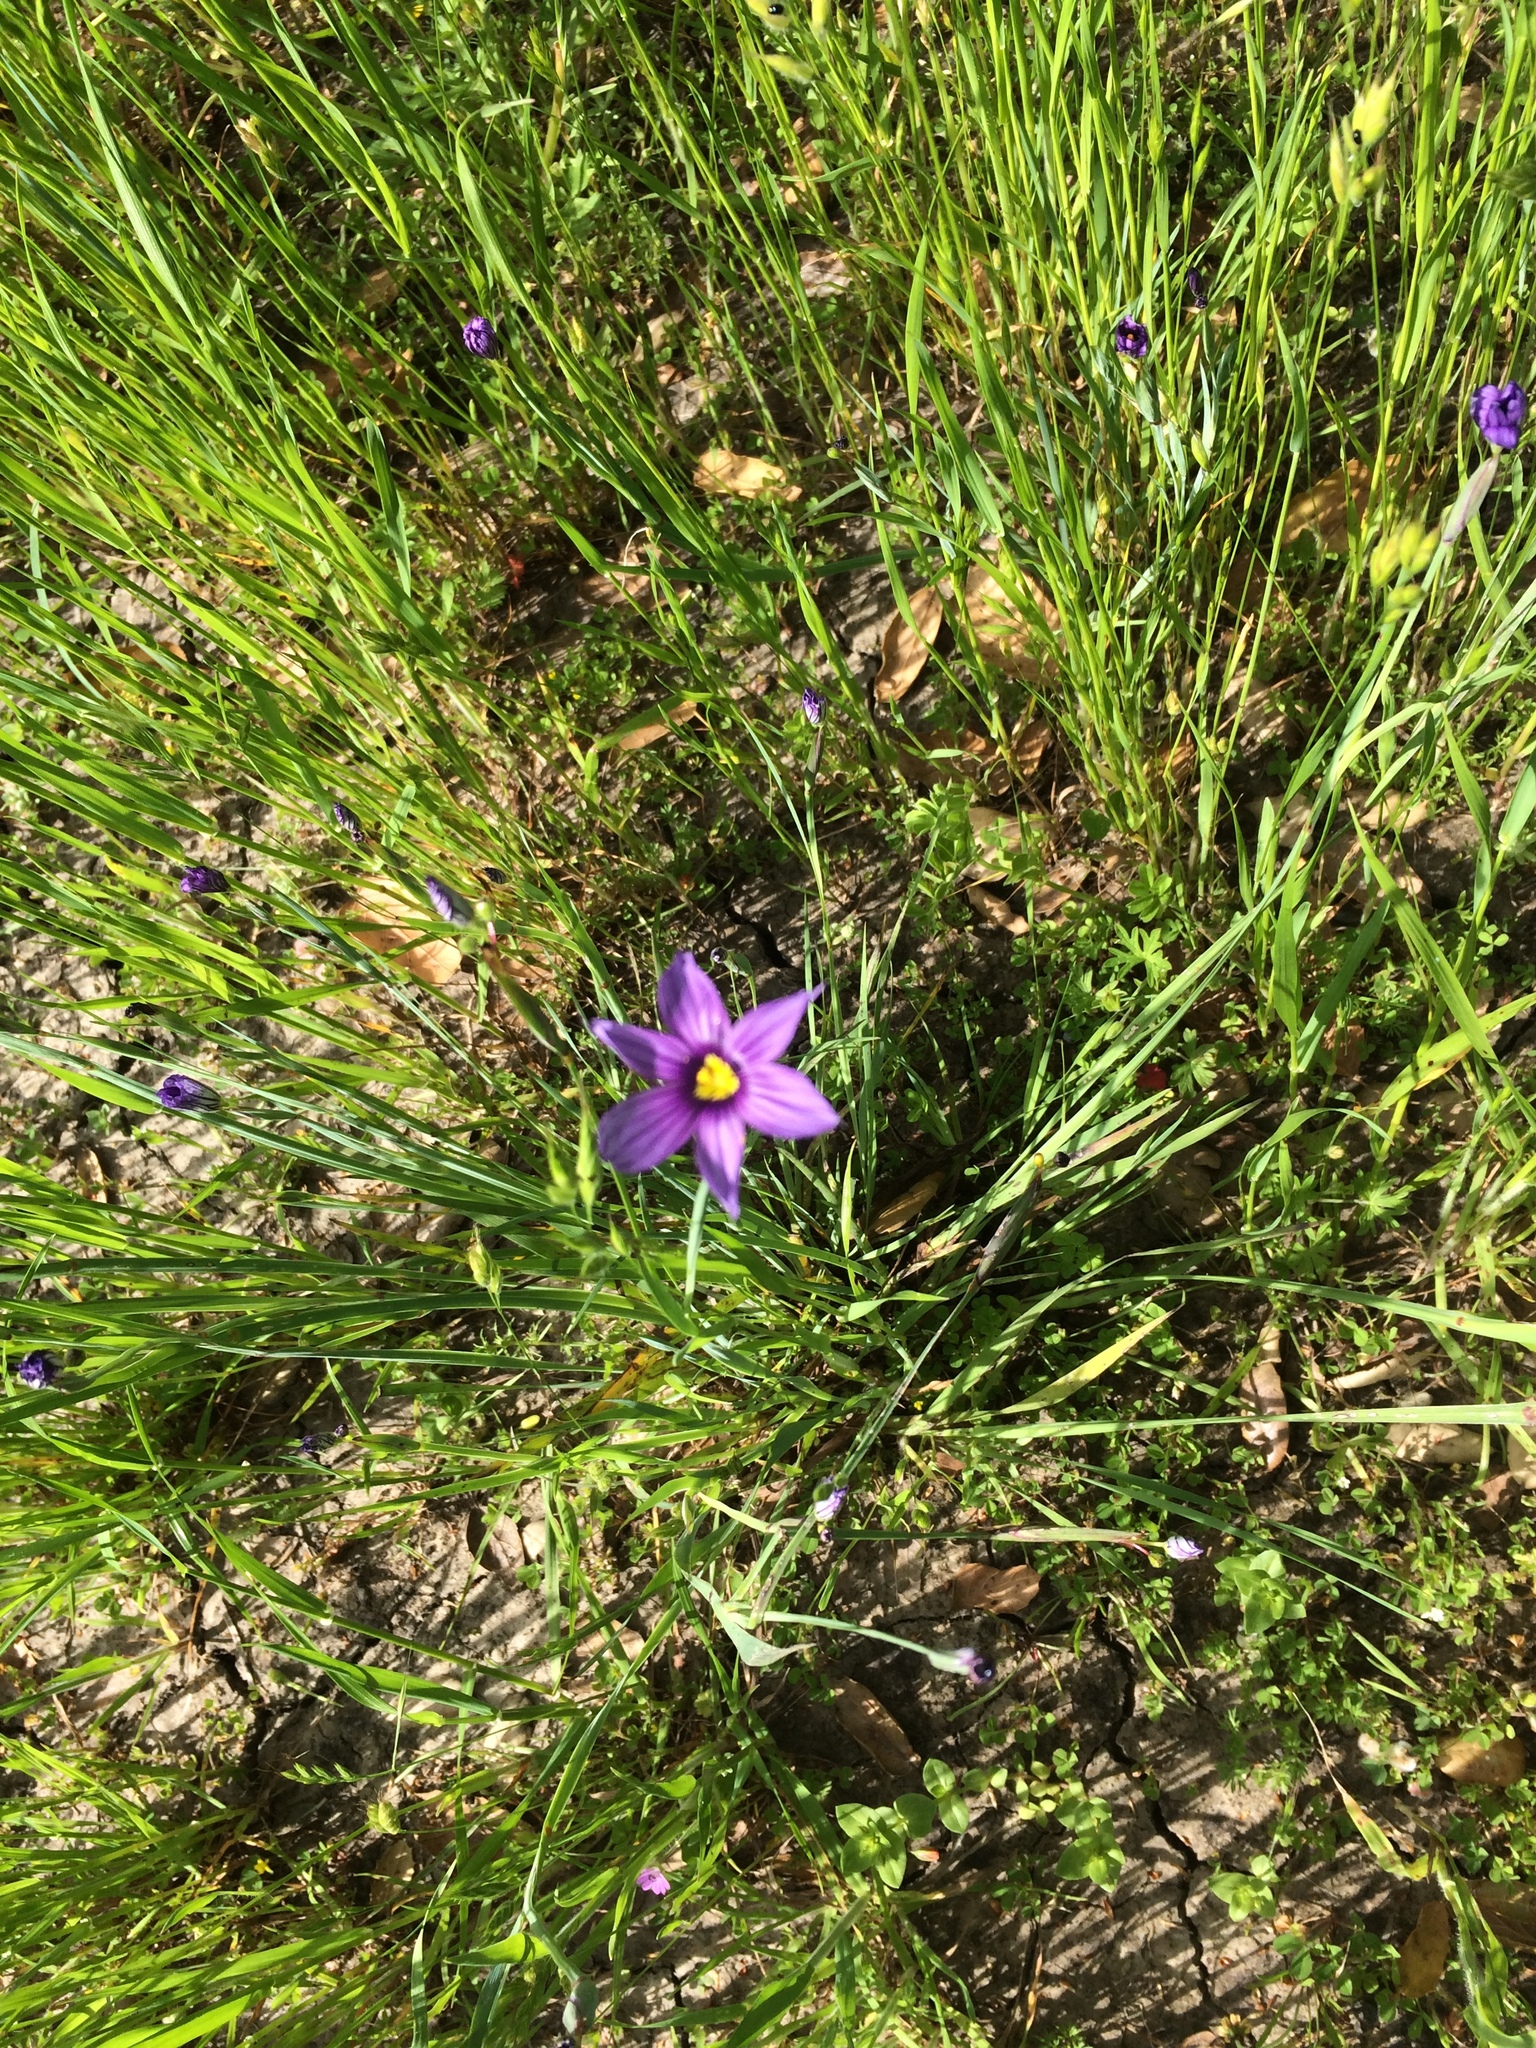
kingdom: Plantae
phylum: Tracheophyta
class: Liliopsida
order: Asparagales
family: Iridaceae
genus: Sisyrinchium
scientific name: Sisyrinchium bellum
